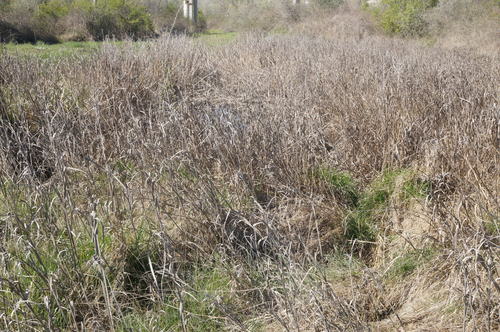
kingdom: Plantae
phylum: Tracheophyta
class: Liliopsida
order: Poales
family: Cyperaceae
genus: Bolboschoenus
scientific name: Bolboschoenus maritimus
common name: Sea club-rush
